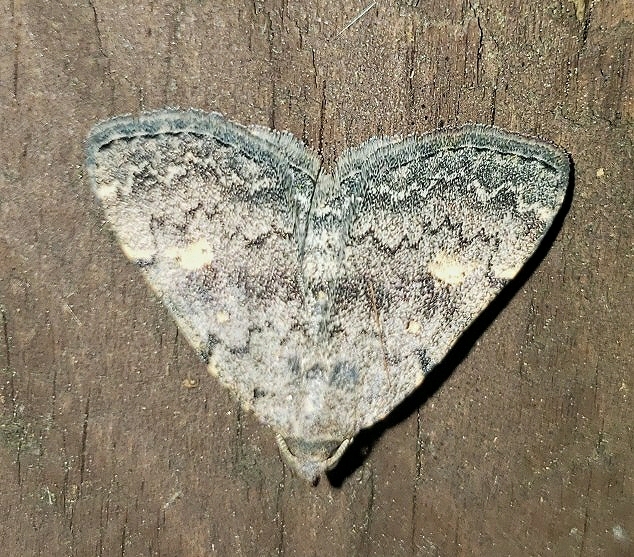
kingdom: Animalia
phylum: Arthropoda
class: Insecta
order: Lepidoptera
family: Erebidae
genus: Idia
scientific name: Idia aemula
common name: Common idia moth
